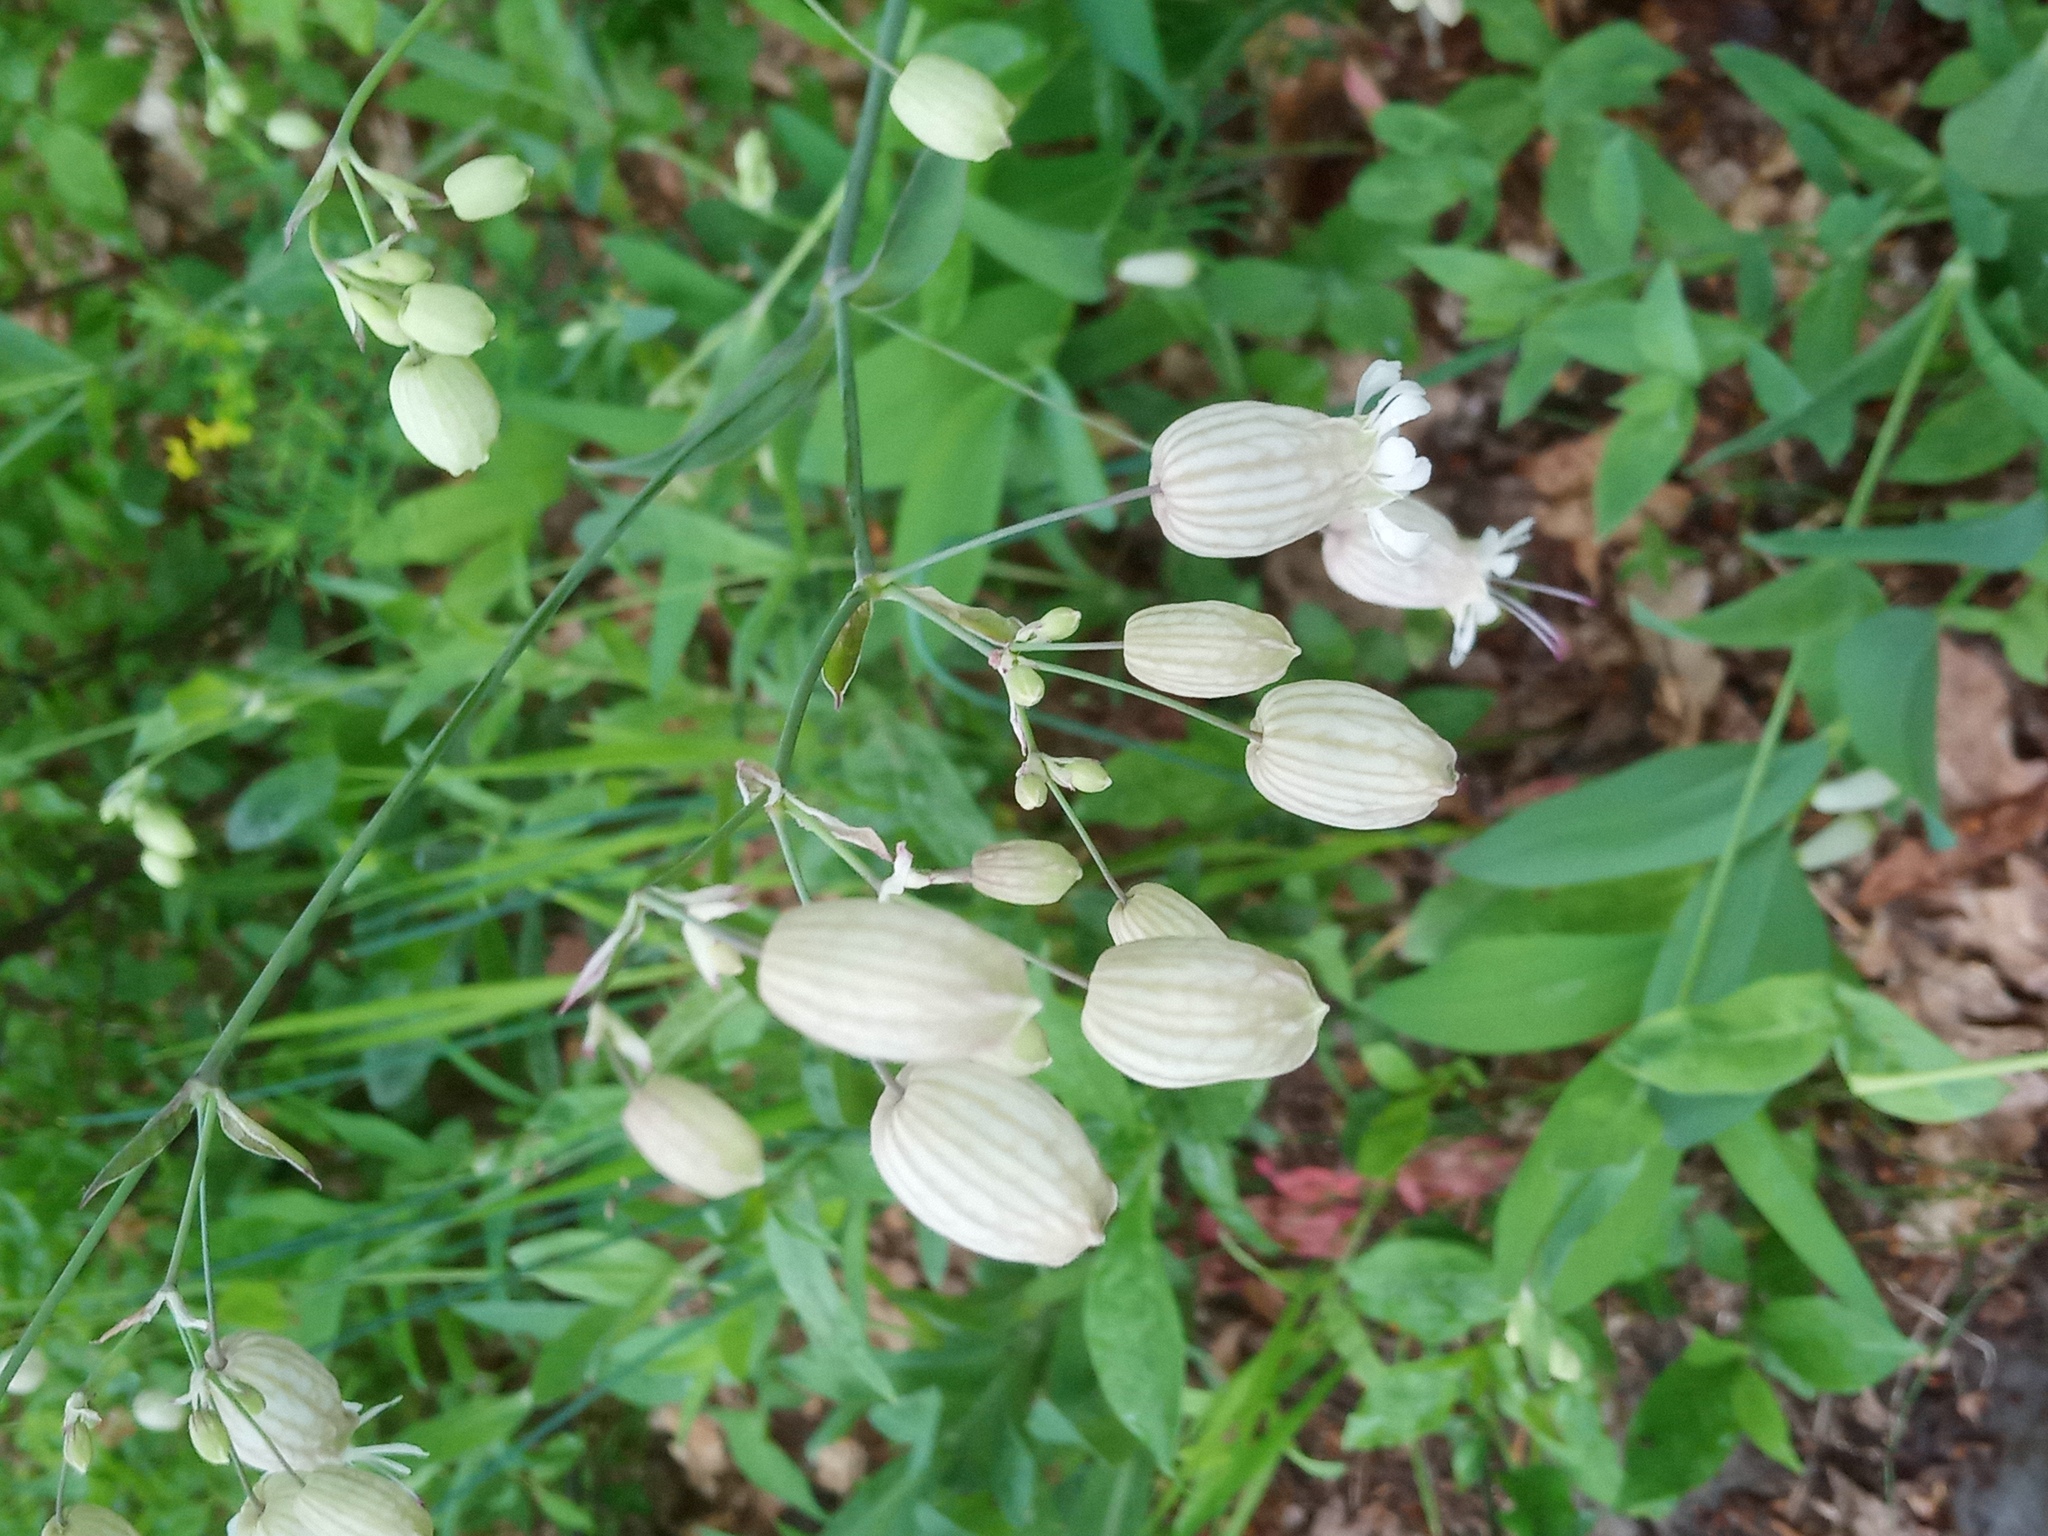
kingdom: Plantae
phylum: Tracheophyta
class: Magnoliopsida
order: Caryophyllales
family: Caryophyllaceae
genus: Silene
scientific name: Silene vulgaris
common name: Bladder campion
